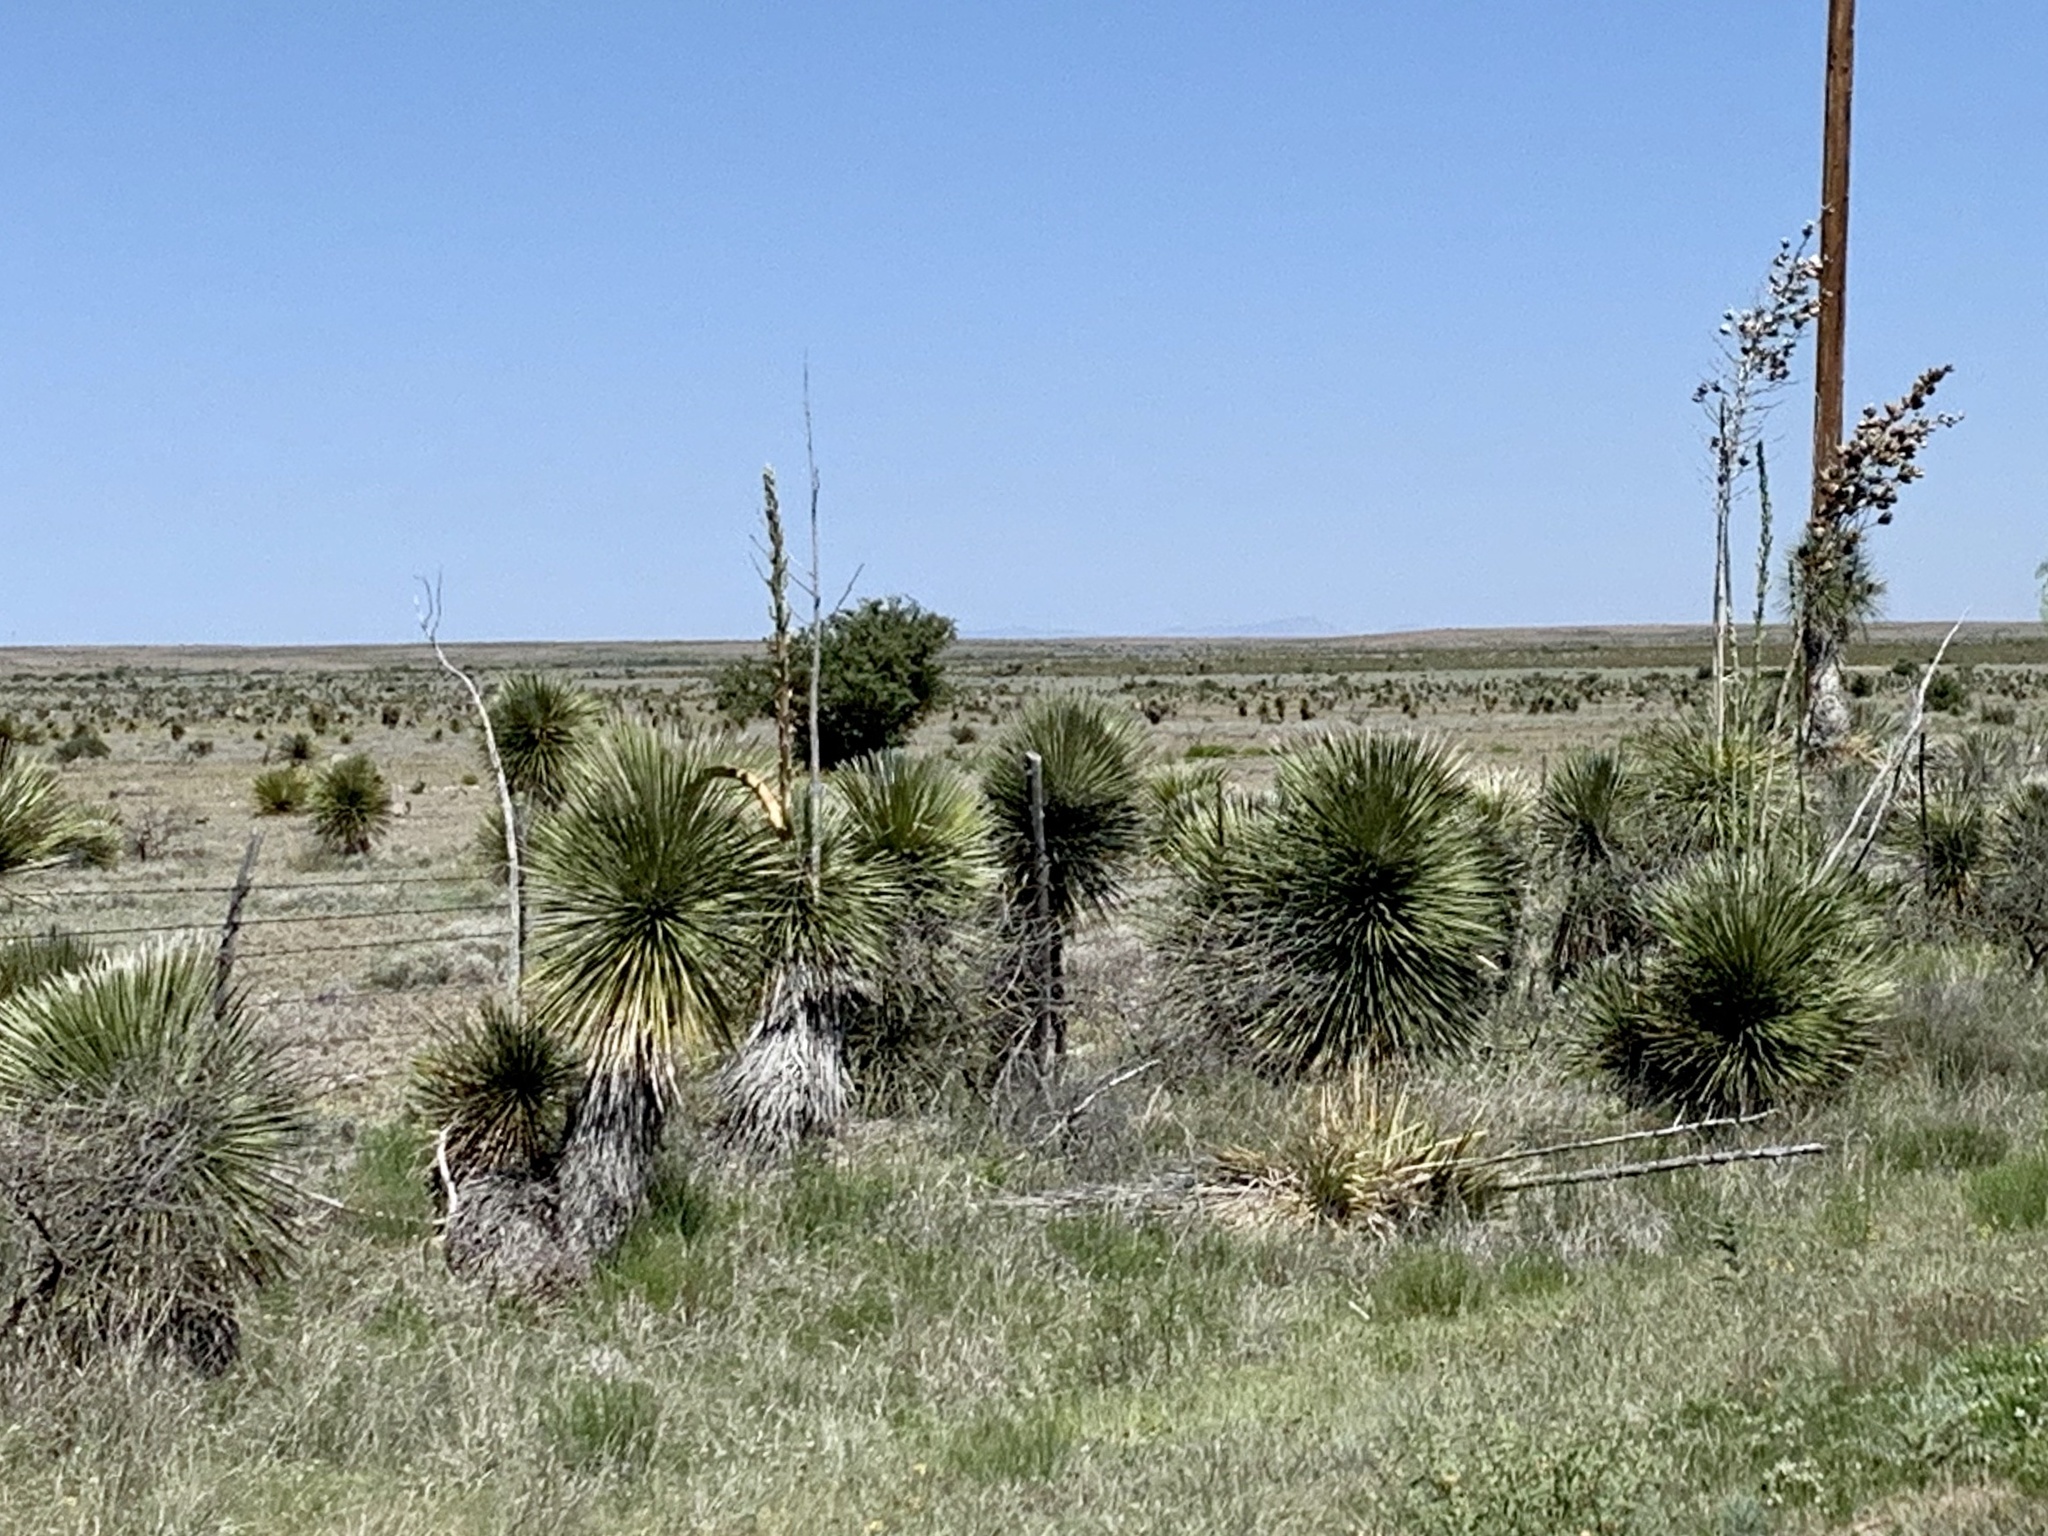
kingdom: Plantae
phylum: Tracheophyta
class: Liliopsida
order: Asparagales
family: Asparagaceae
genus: Yucca
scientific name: Yucca elata
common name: Palmella
